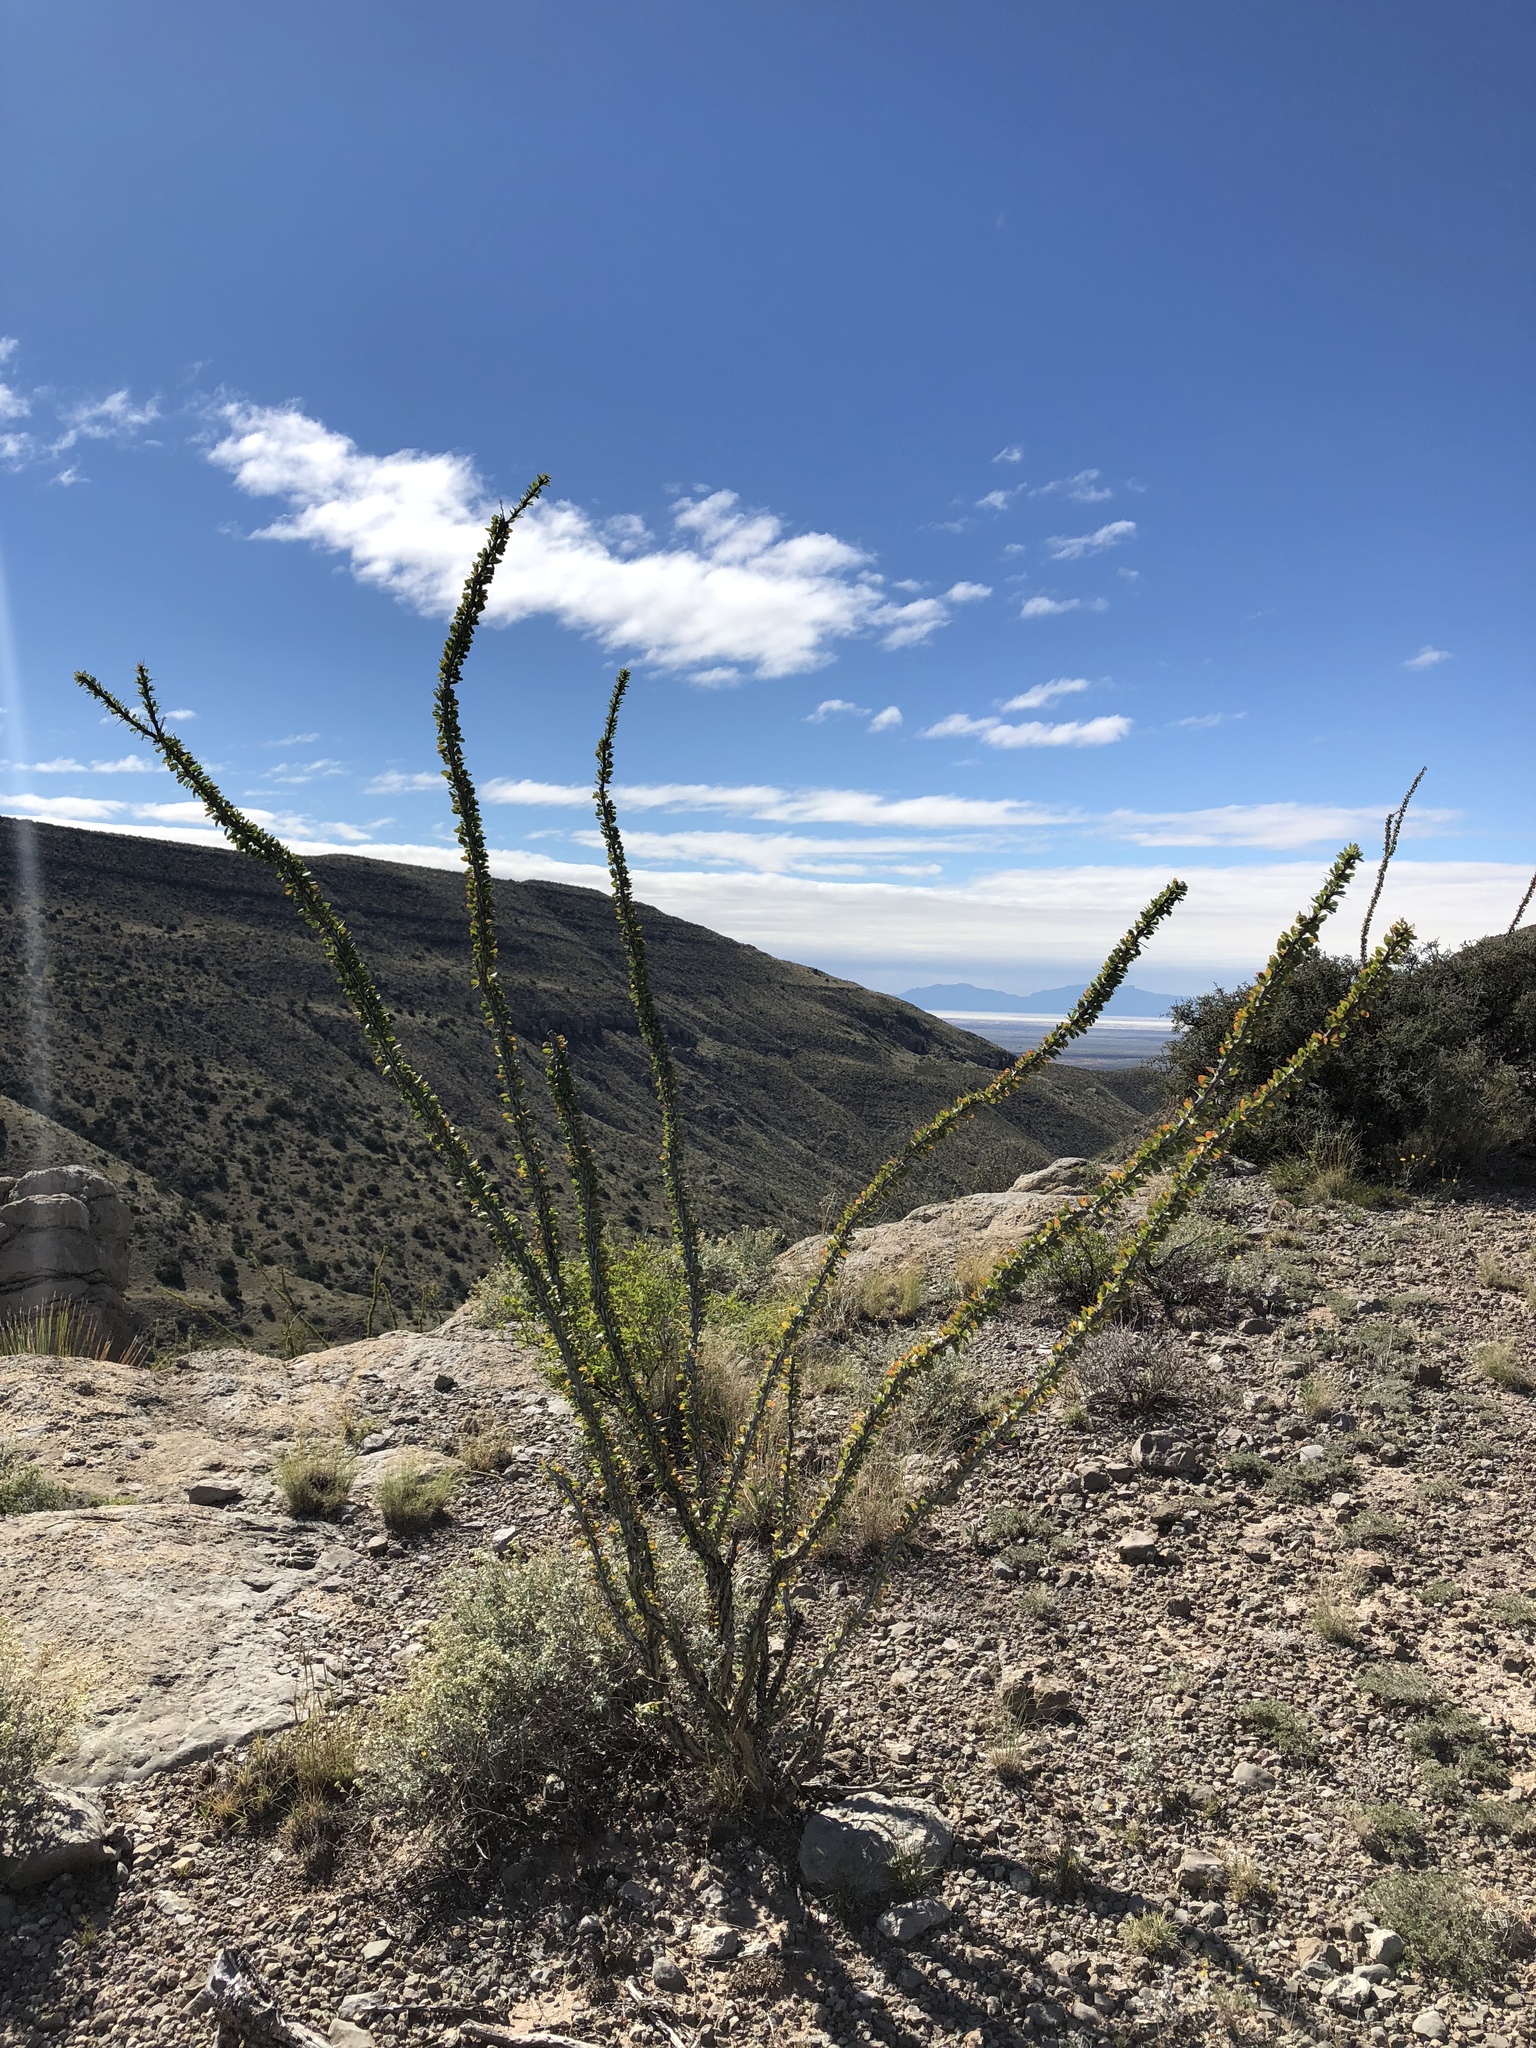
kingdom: Plantae
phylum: Tracheophyta
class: Magnoliopsida
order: Ericales
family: Fouquieriaceae
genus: Fouquieria
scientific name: Fouquieria splendens
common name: Vine-cactus
